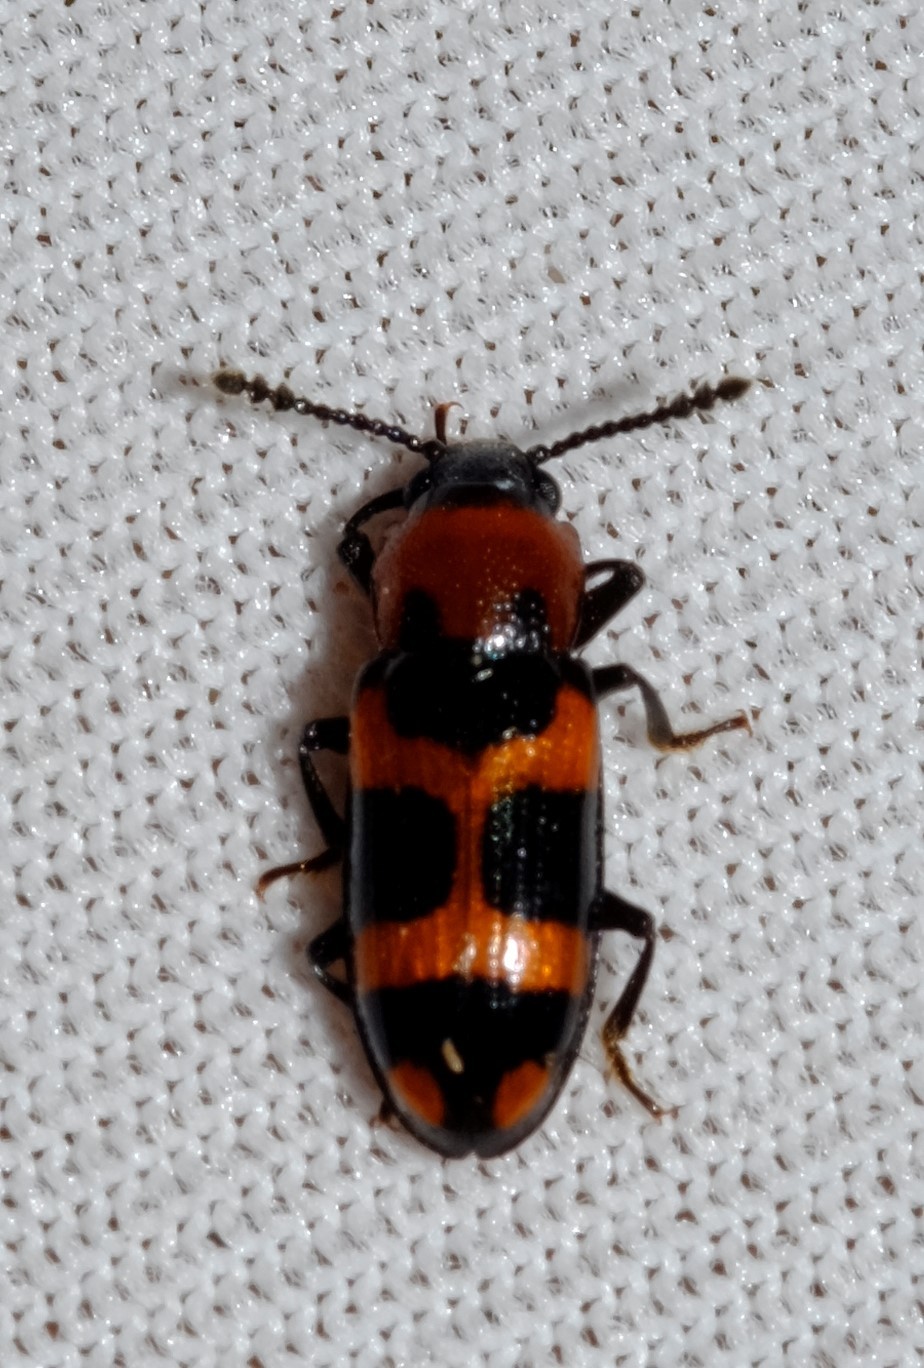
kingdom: Animalia
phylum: Arthropoda
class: Insecta
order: Coleoptera
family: Erotylidae
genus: Thallis
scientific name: Thallis
